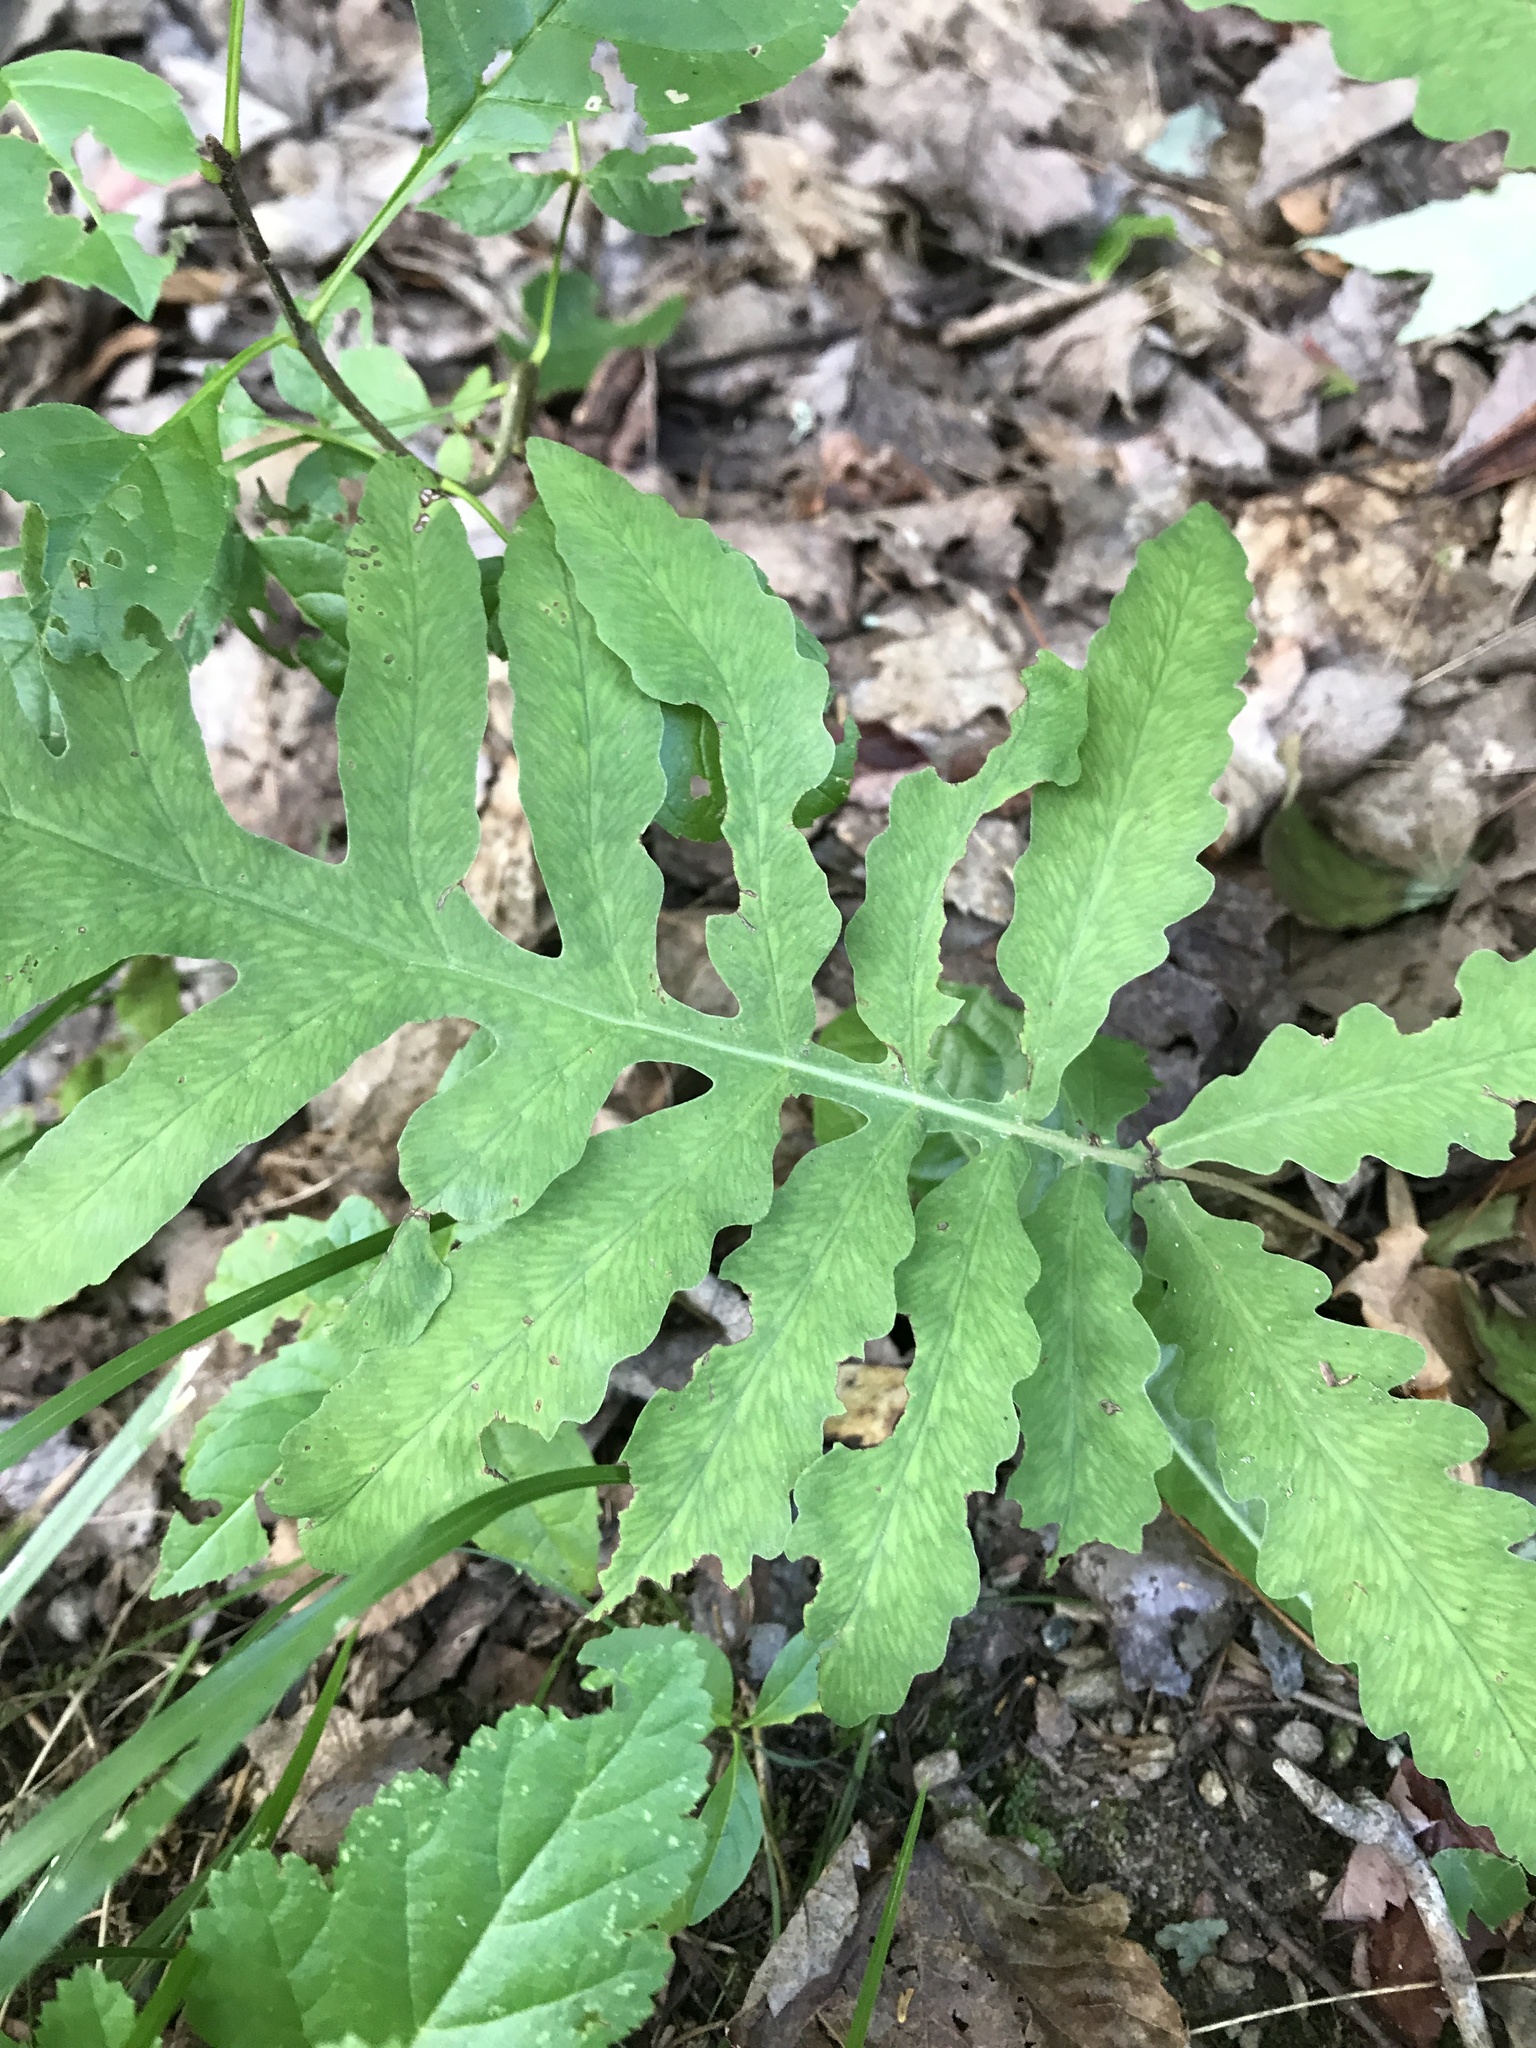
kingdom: Plantae
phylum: Tracheophyta
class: Polypodiopsida
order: Polypodiales
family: Onocleaceae
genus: Onoclea
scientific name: Onoclea sensibilis
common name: Sensitive fern
